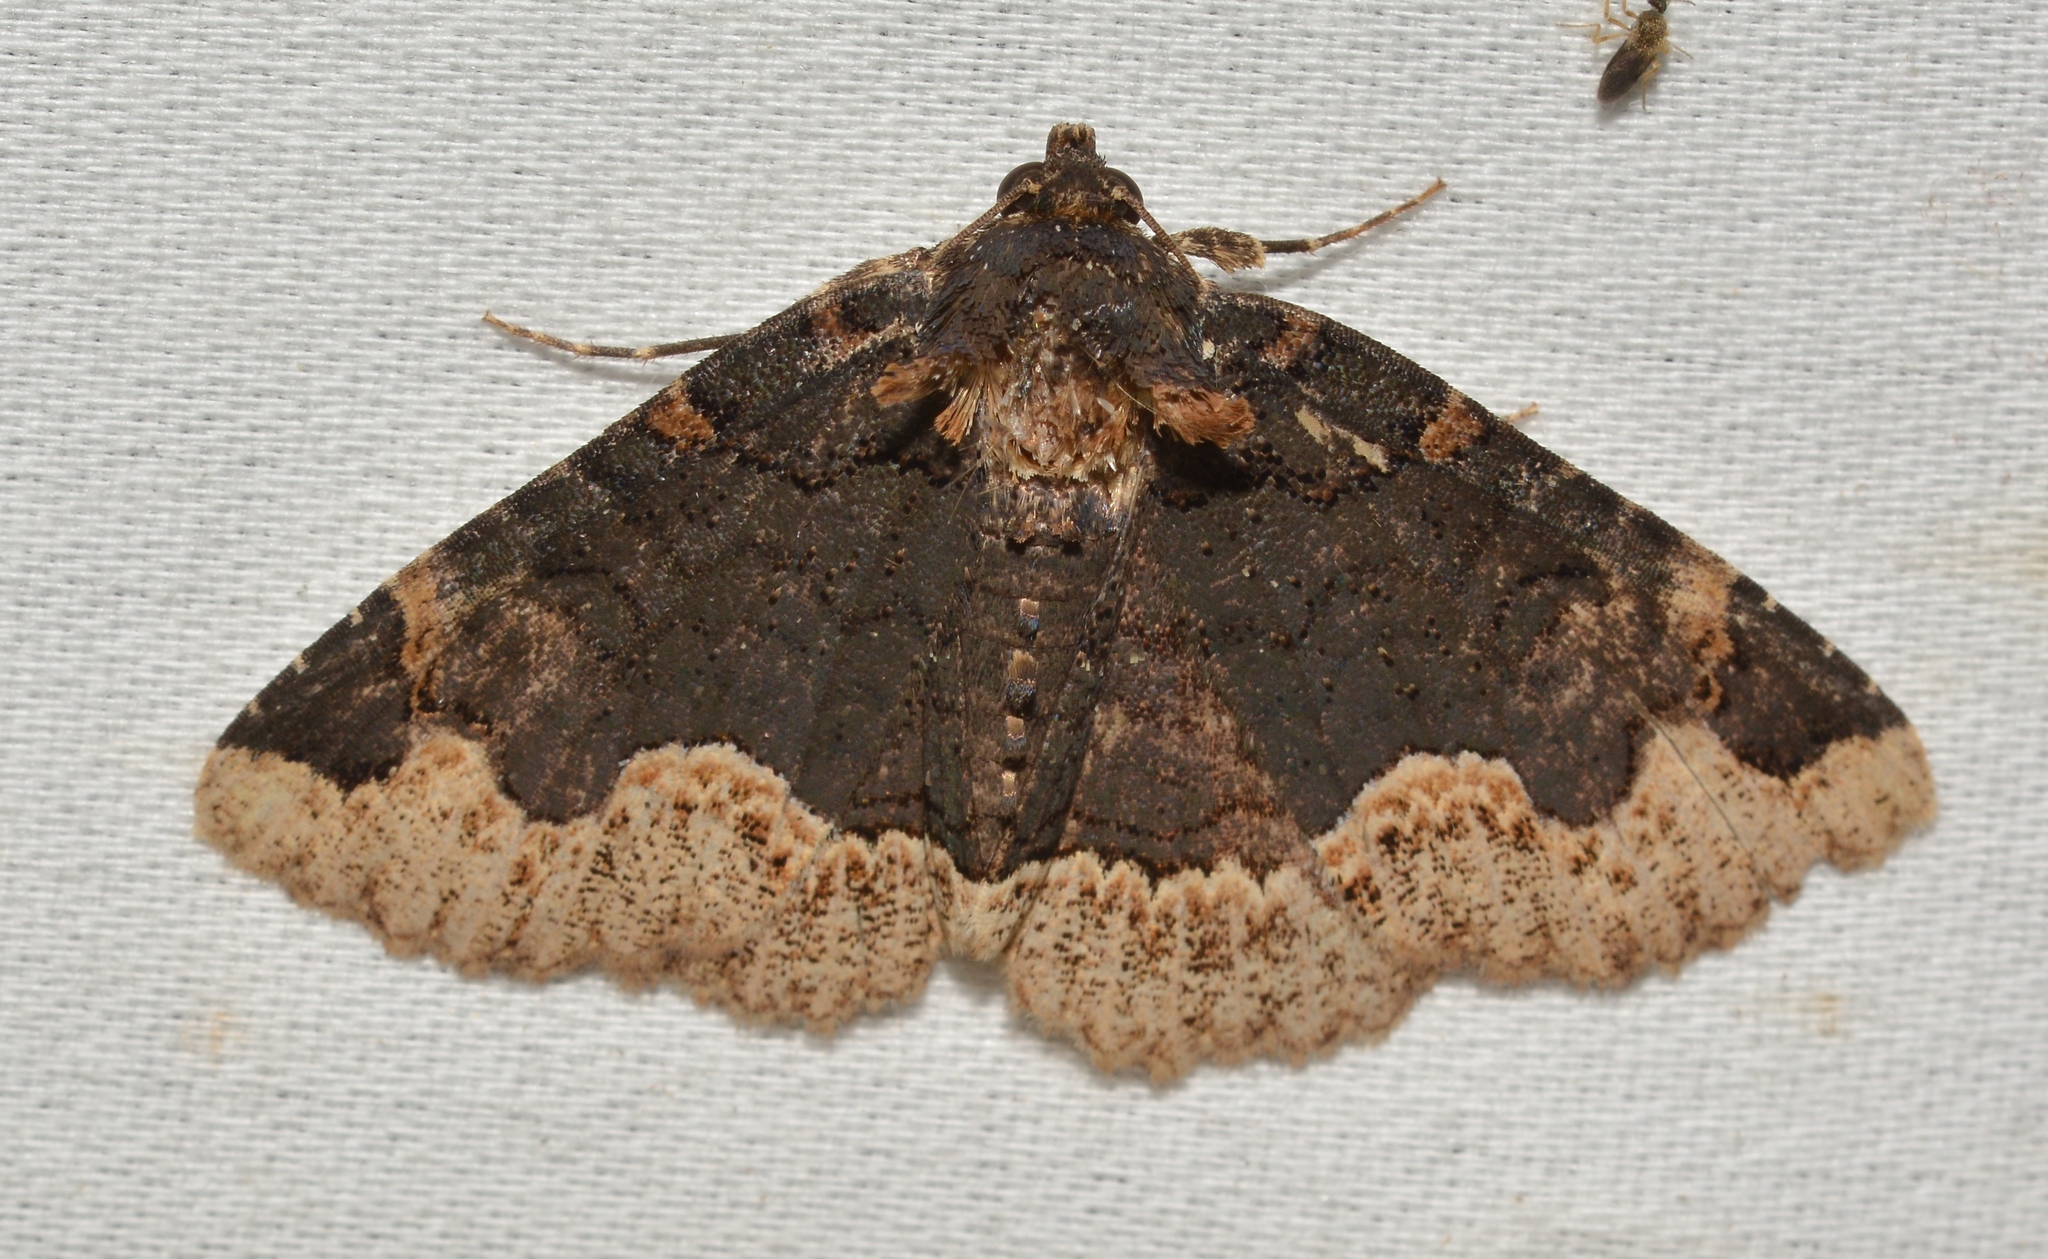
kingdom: Animalia
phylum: Arthropoda
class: Insecta
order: Lepidoptera
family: Erebidae
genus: Zale
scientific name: Zale horrida
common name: Horrid zale moth
